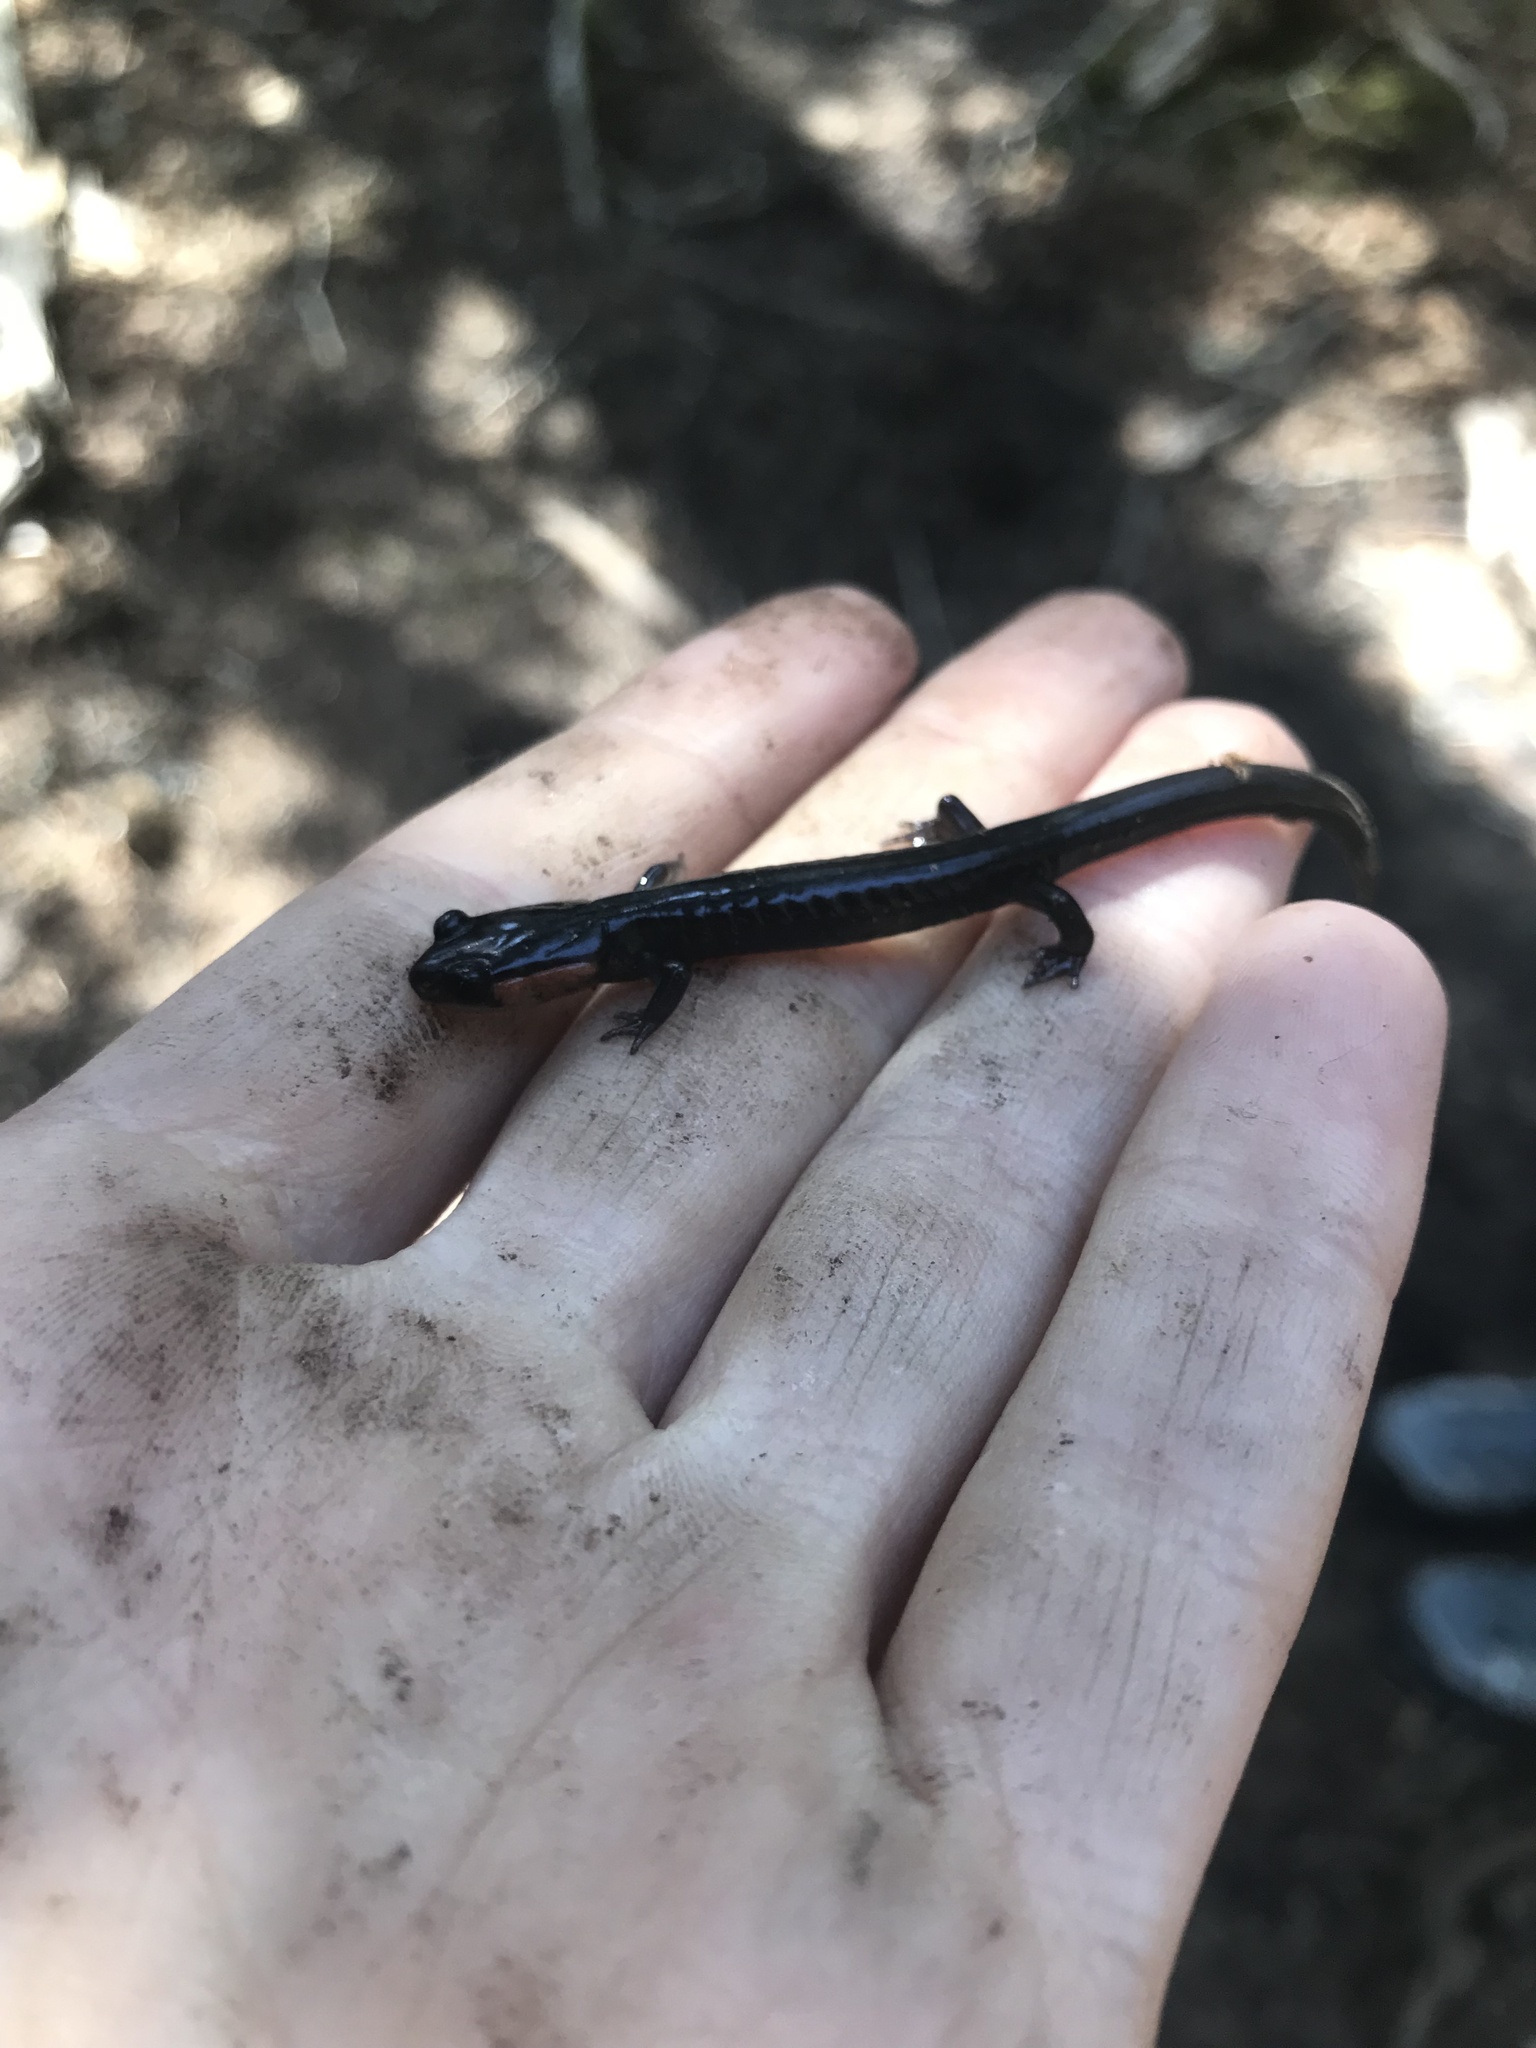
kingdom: Animalia
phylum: Chordata
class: Amphibia
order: Caudata
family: Plethodontidae
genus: Plethodon
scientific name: Plethodon jordani
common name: Red-cheeked salamander
